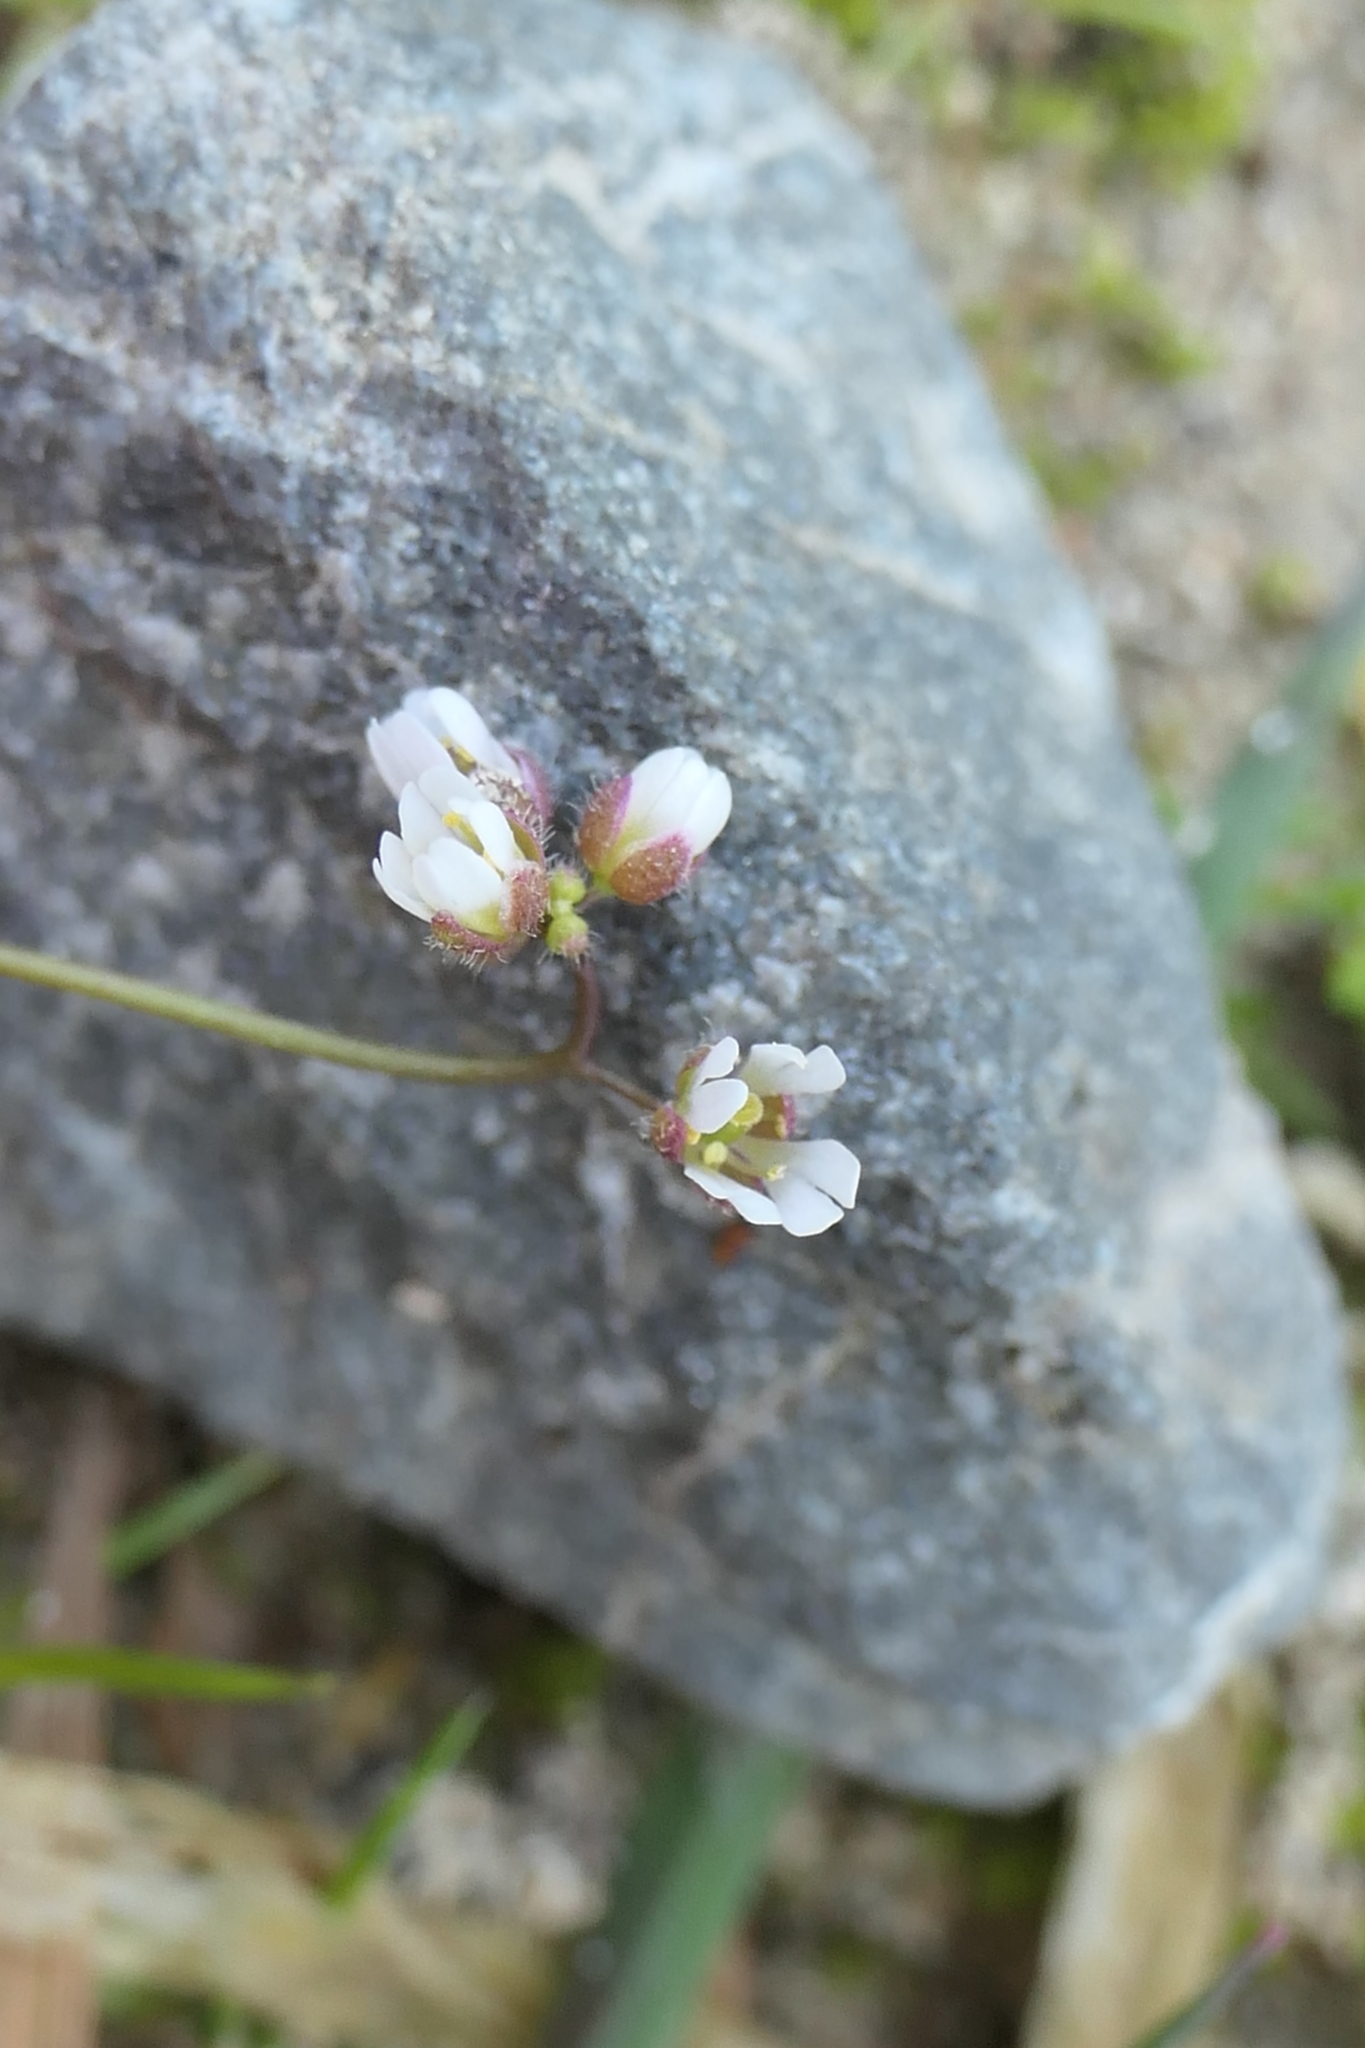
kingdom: Plantae
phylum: Tracheophyta
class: Magnoliopsida
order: Brassicales
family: Brassicaceae
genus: Draba
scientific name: Draba verna
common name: Spring draba
